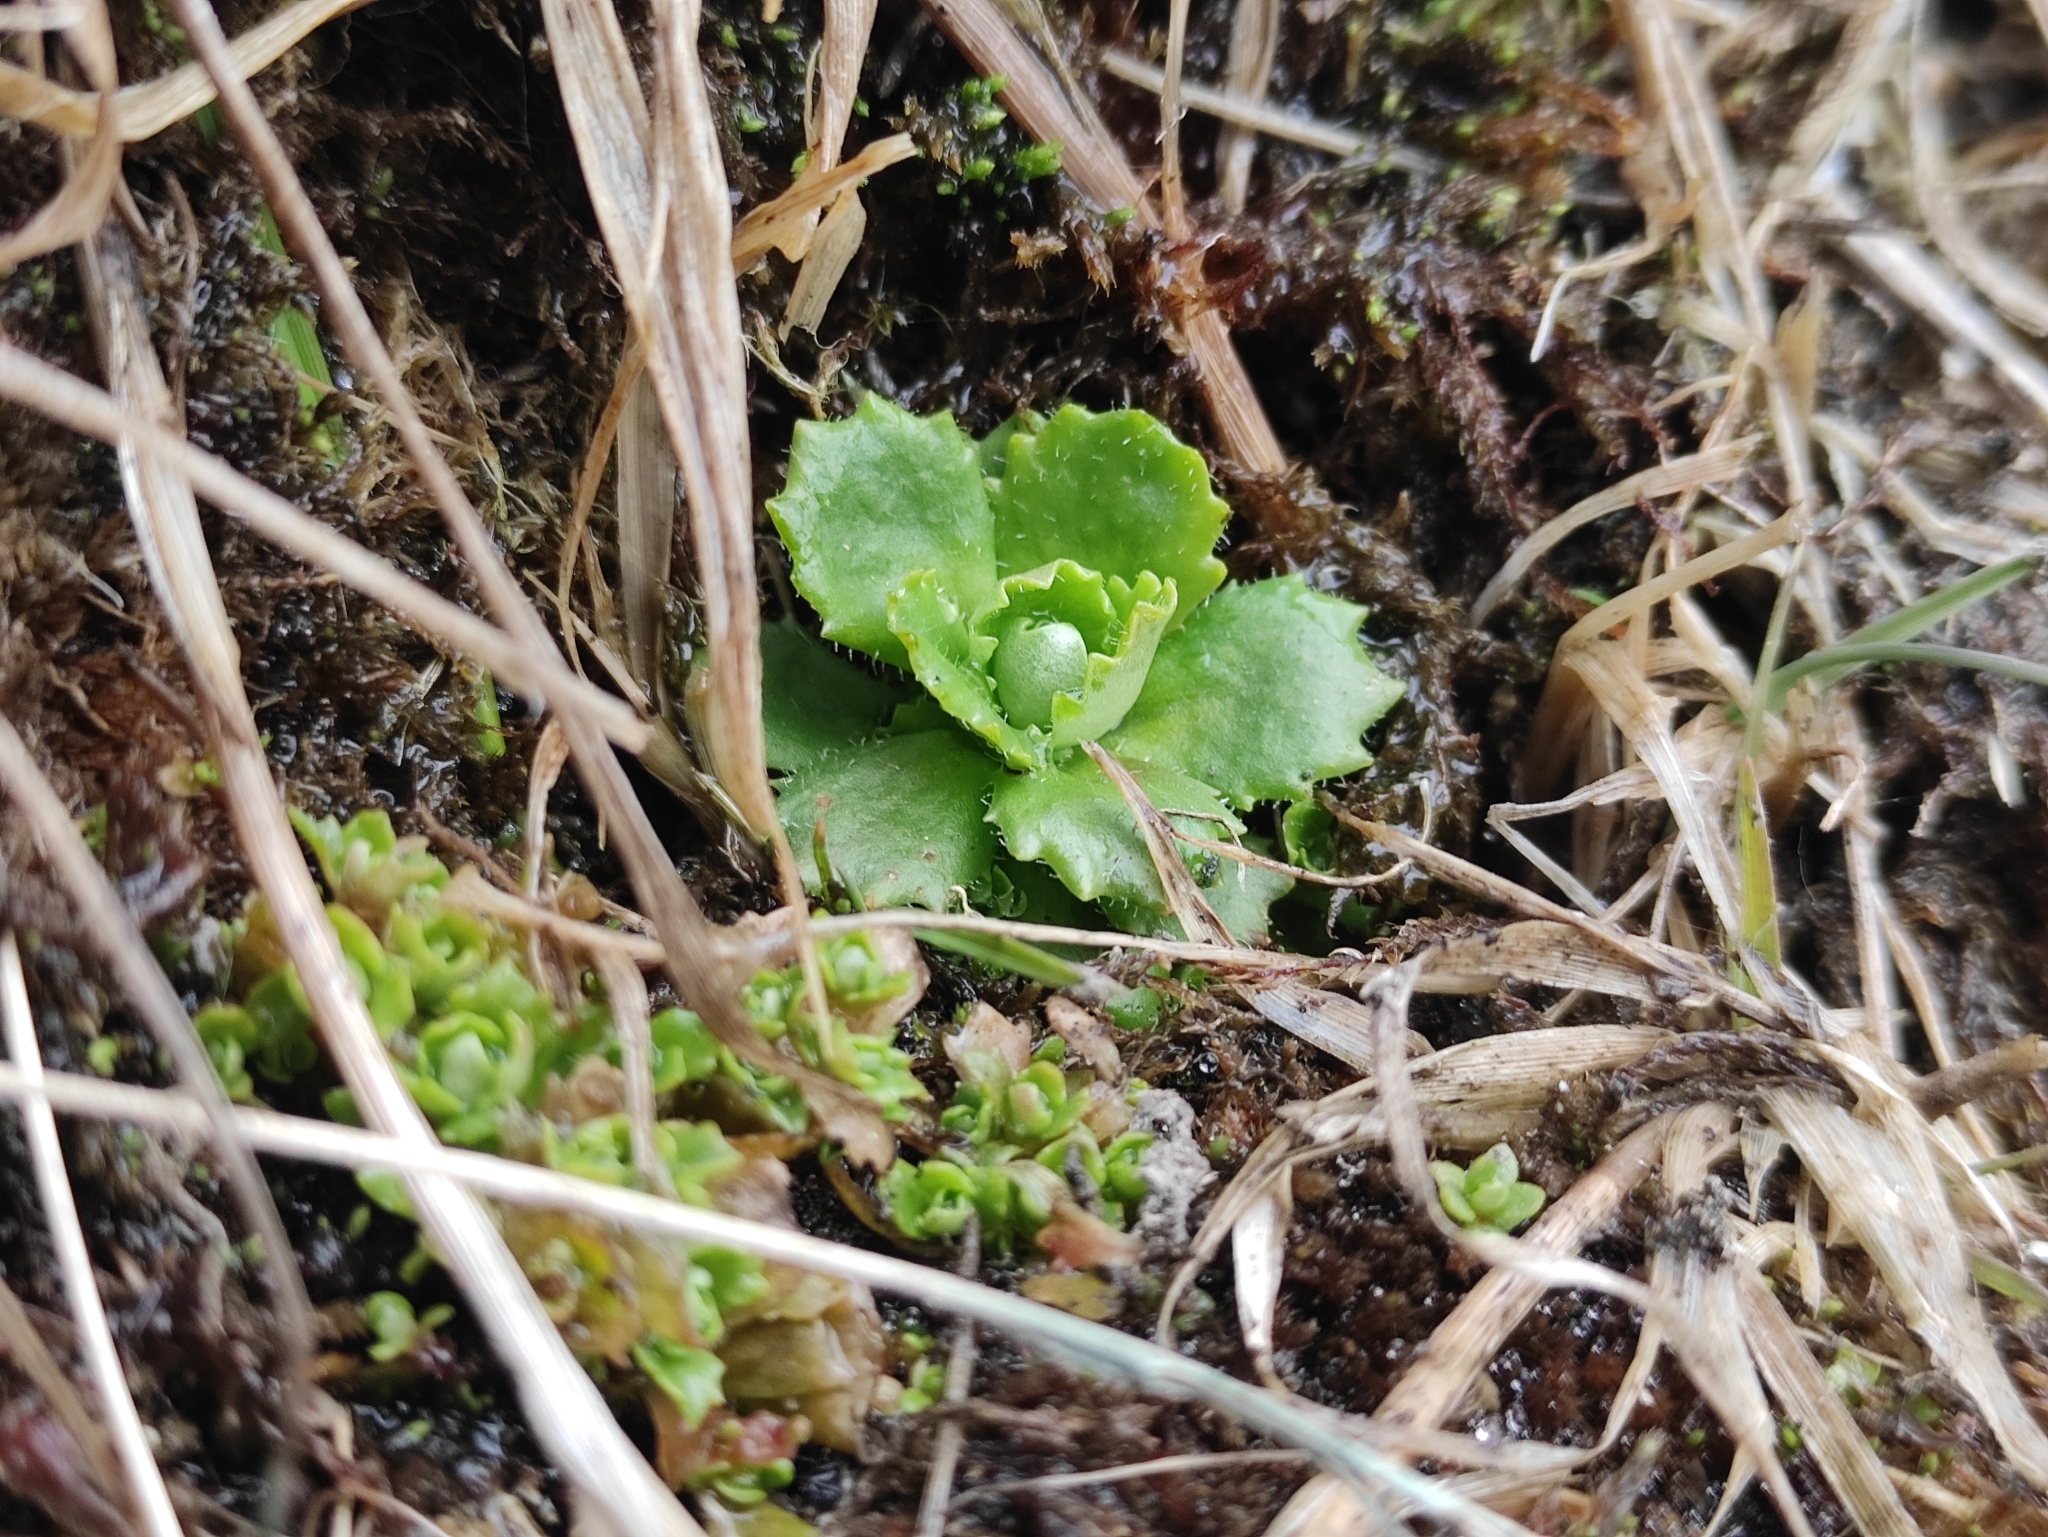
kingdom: Plantae
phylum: Tracheophyta
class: Magnoliopsida
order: Saxifragales
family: Saxifragaceae
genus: Micranthes
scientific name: Micranthes stellaris
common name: Starry saxifrage
